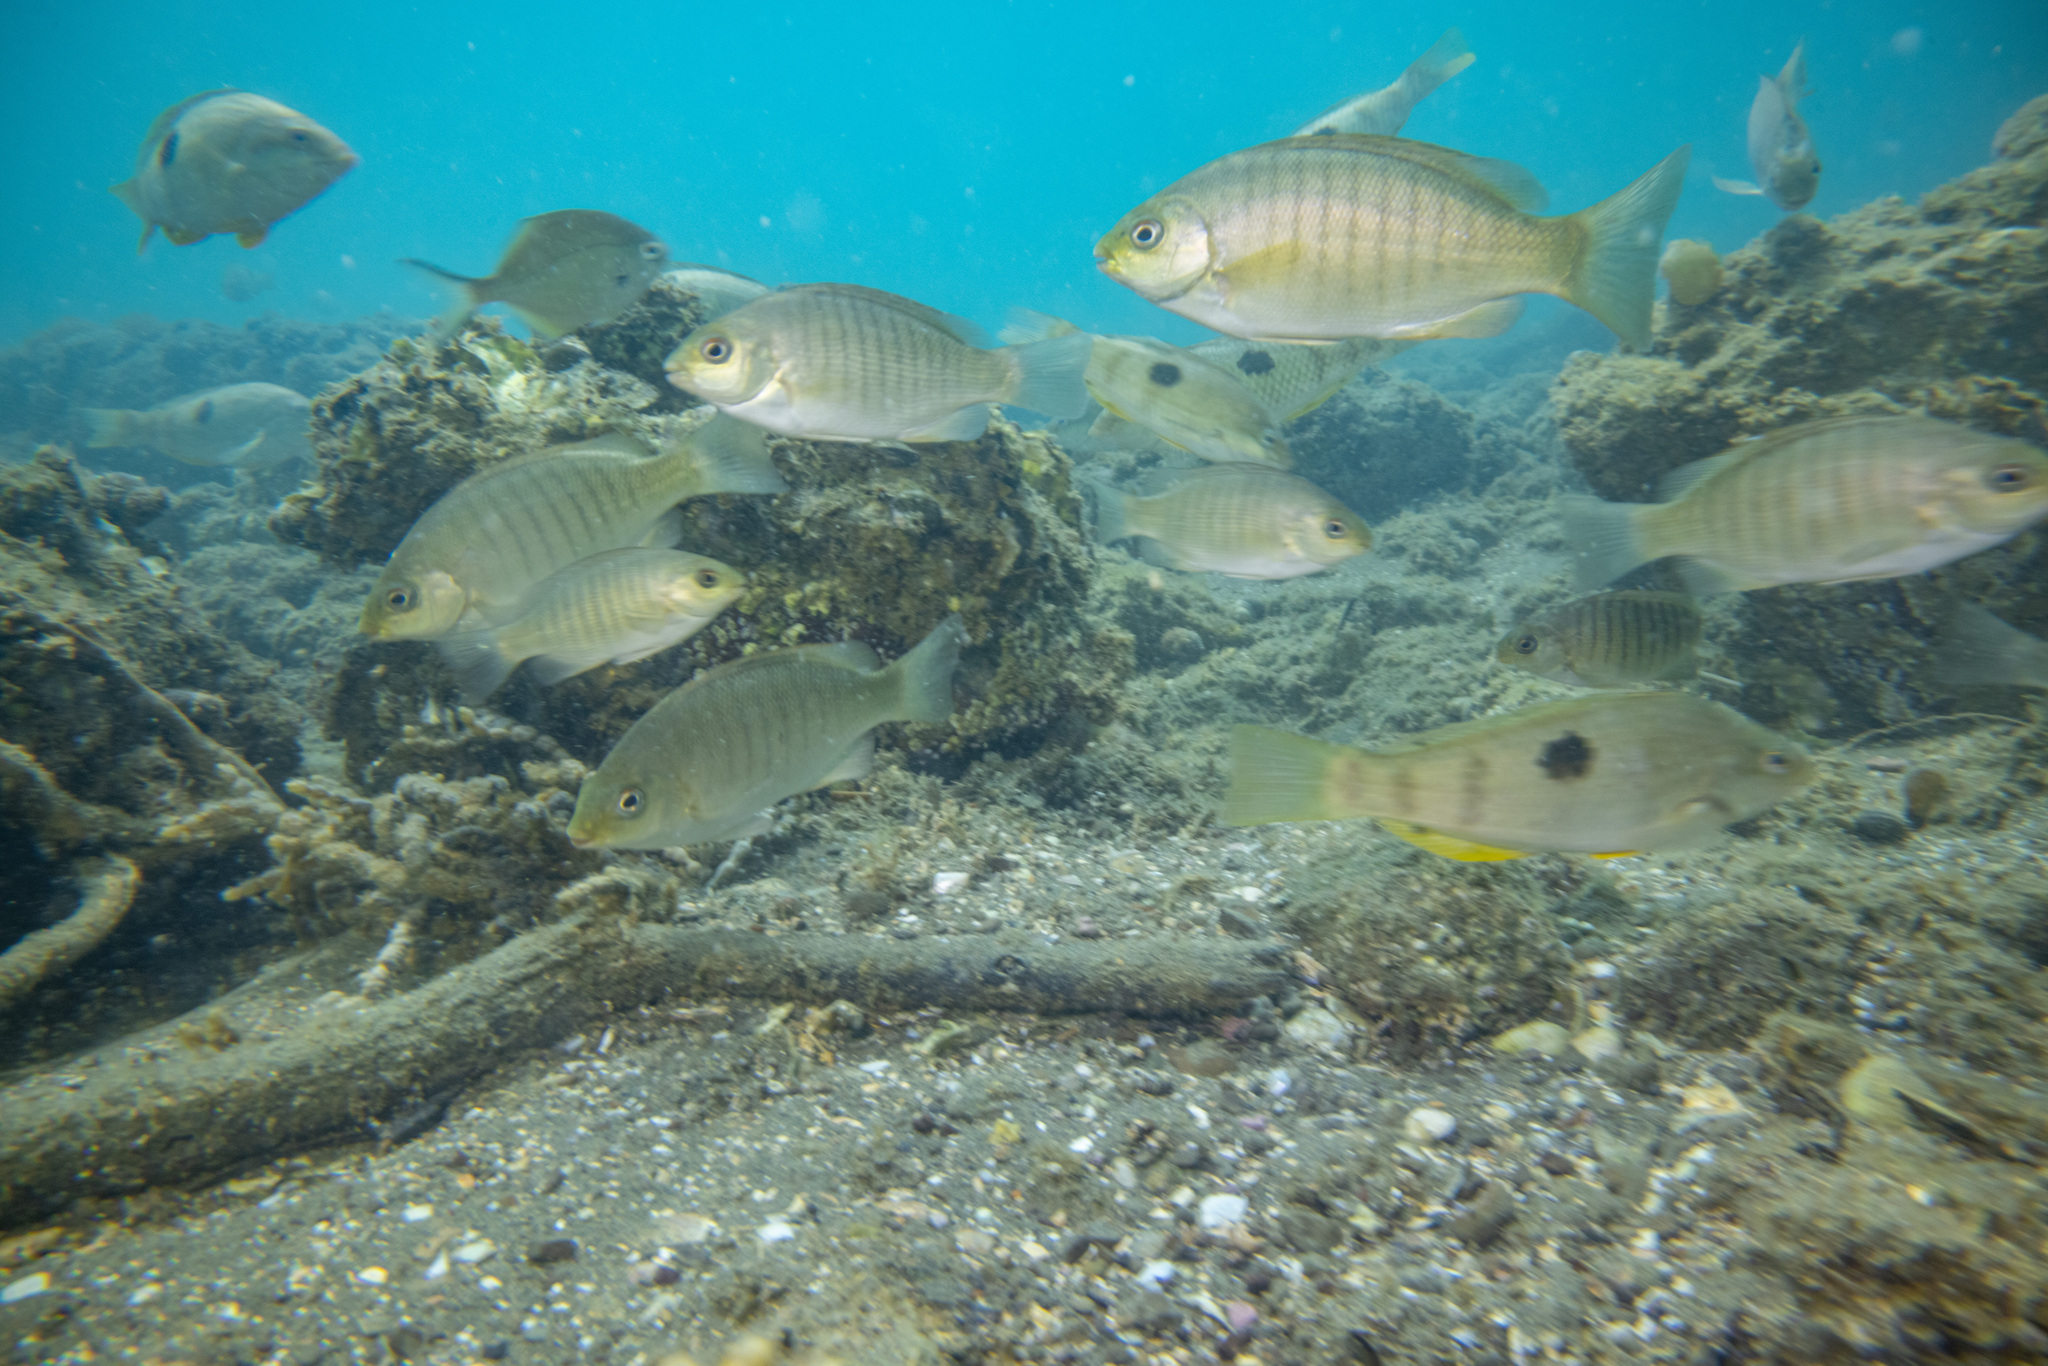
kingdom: Animalia
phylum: Chordata
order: Perciformes
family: Kyphosidae
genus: Girella
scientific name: Girella tricuspidata
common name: Parore
